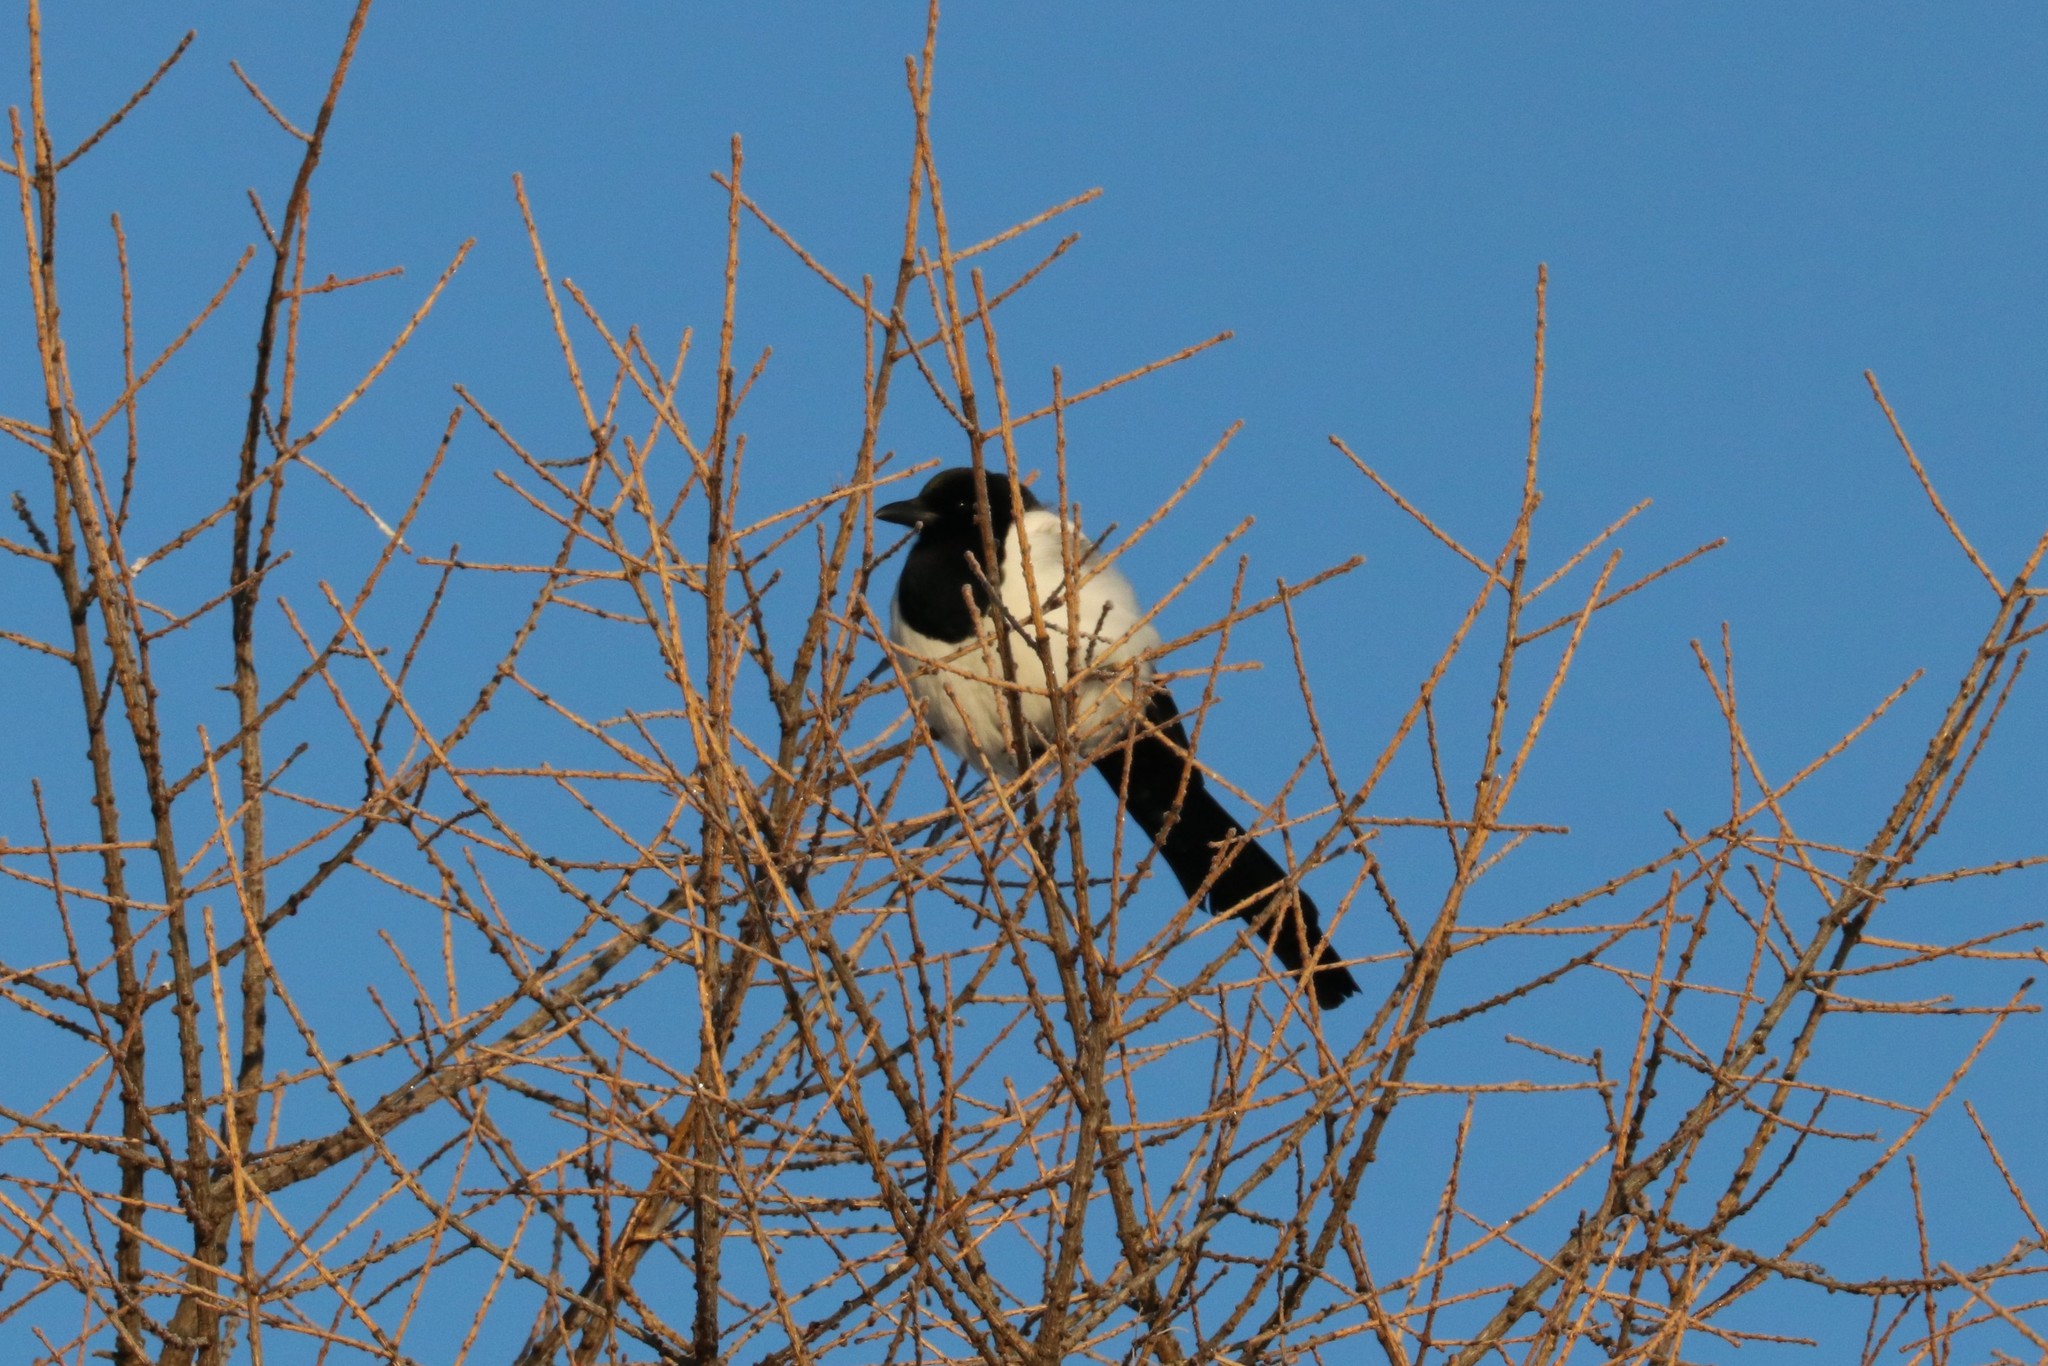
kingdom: Animalia
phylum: Chordata
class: Aves
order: Passeriformes
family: Corvidae
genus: Pica
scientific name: Pica pica
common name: Eurasian magpie
